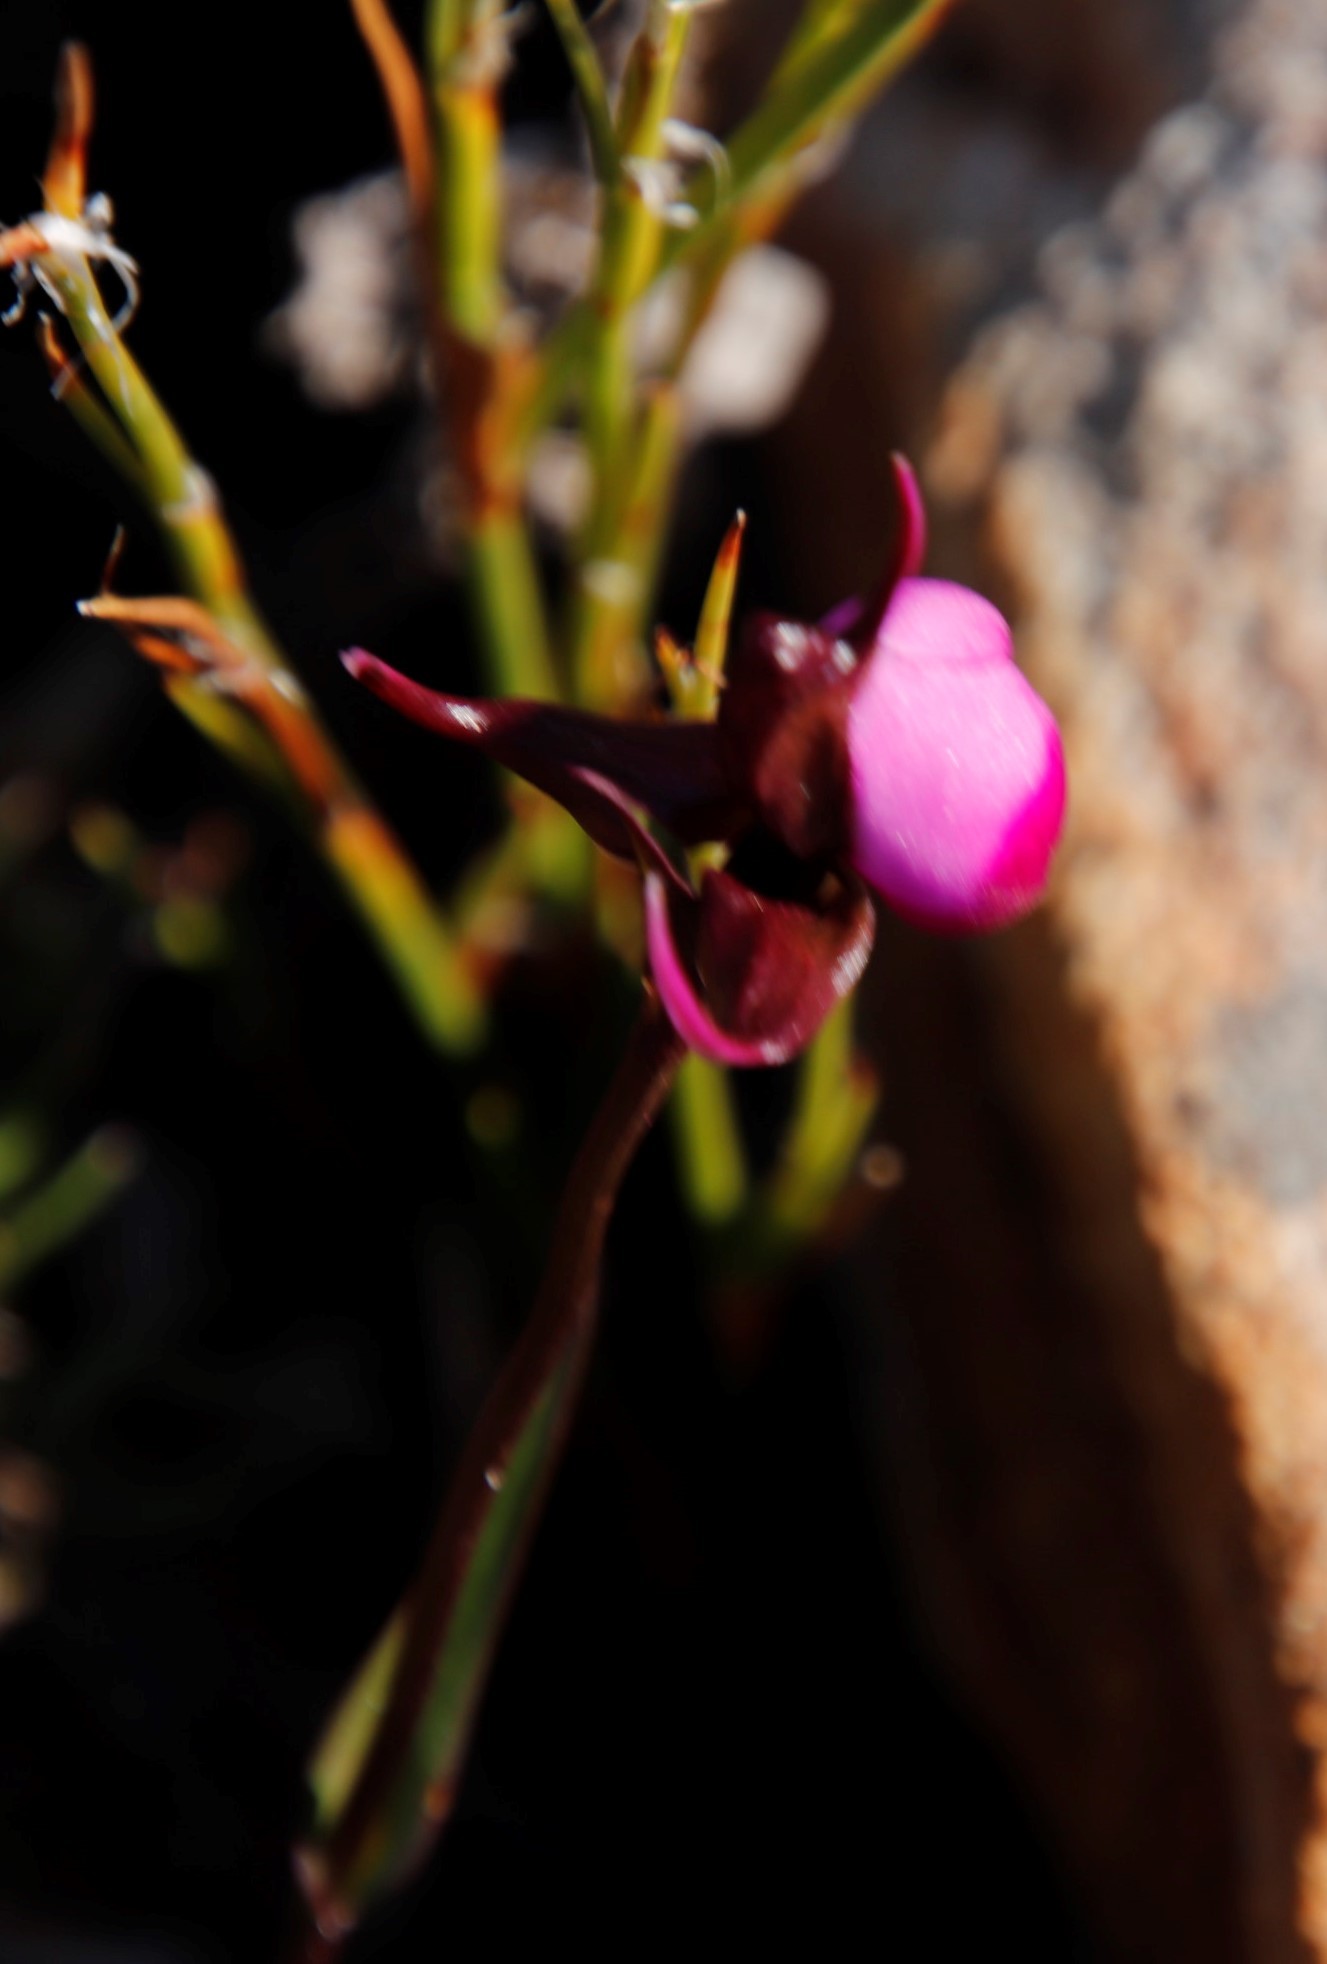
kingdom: Plantae
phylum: Tracheophyta
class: Liliopsida
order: Asparagales
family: Orchidaceae
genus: Disperis
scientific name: Disperis capensis
